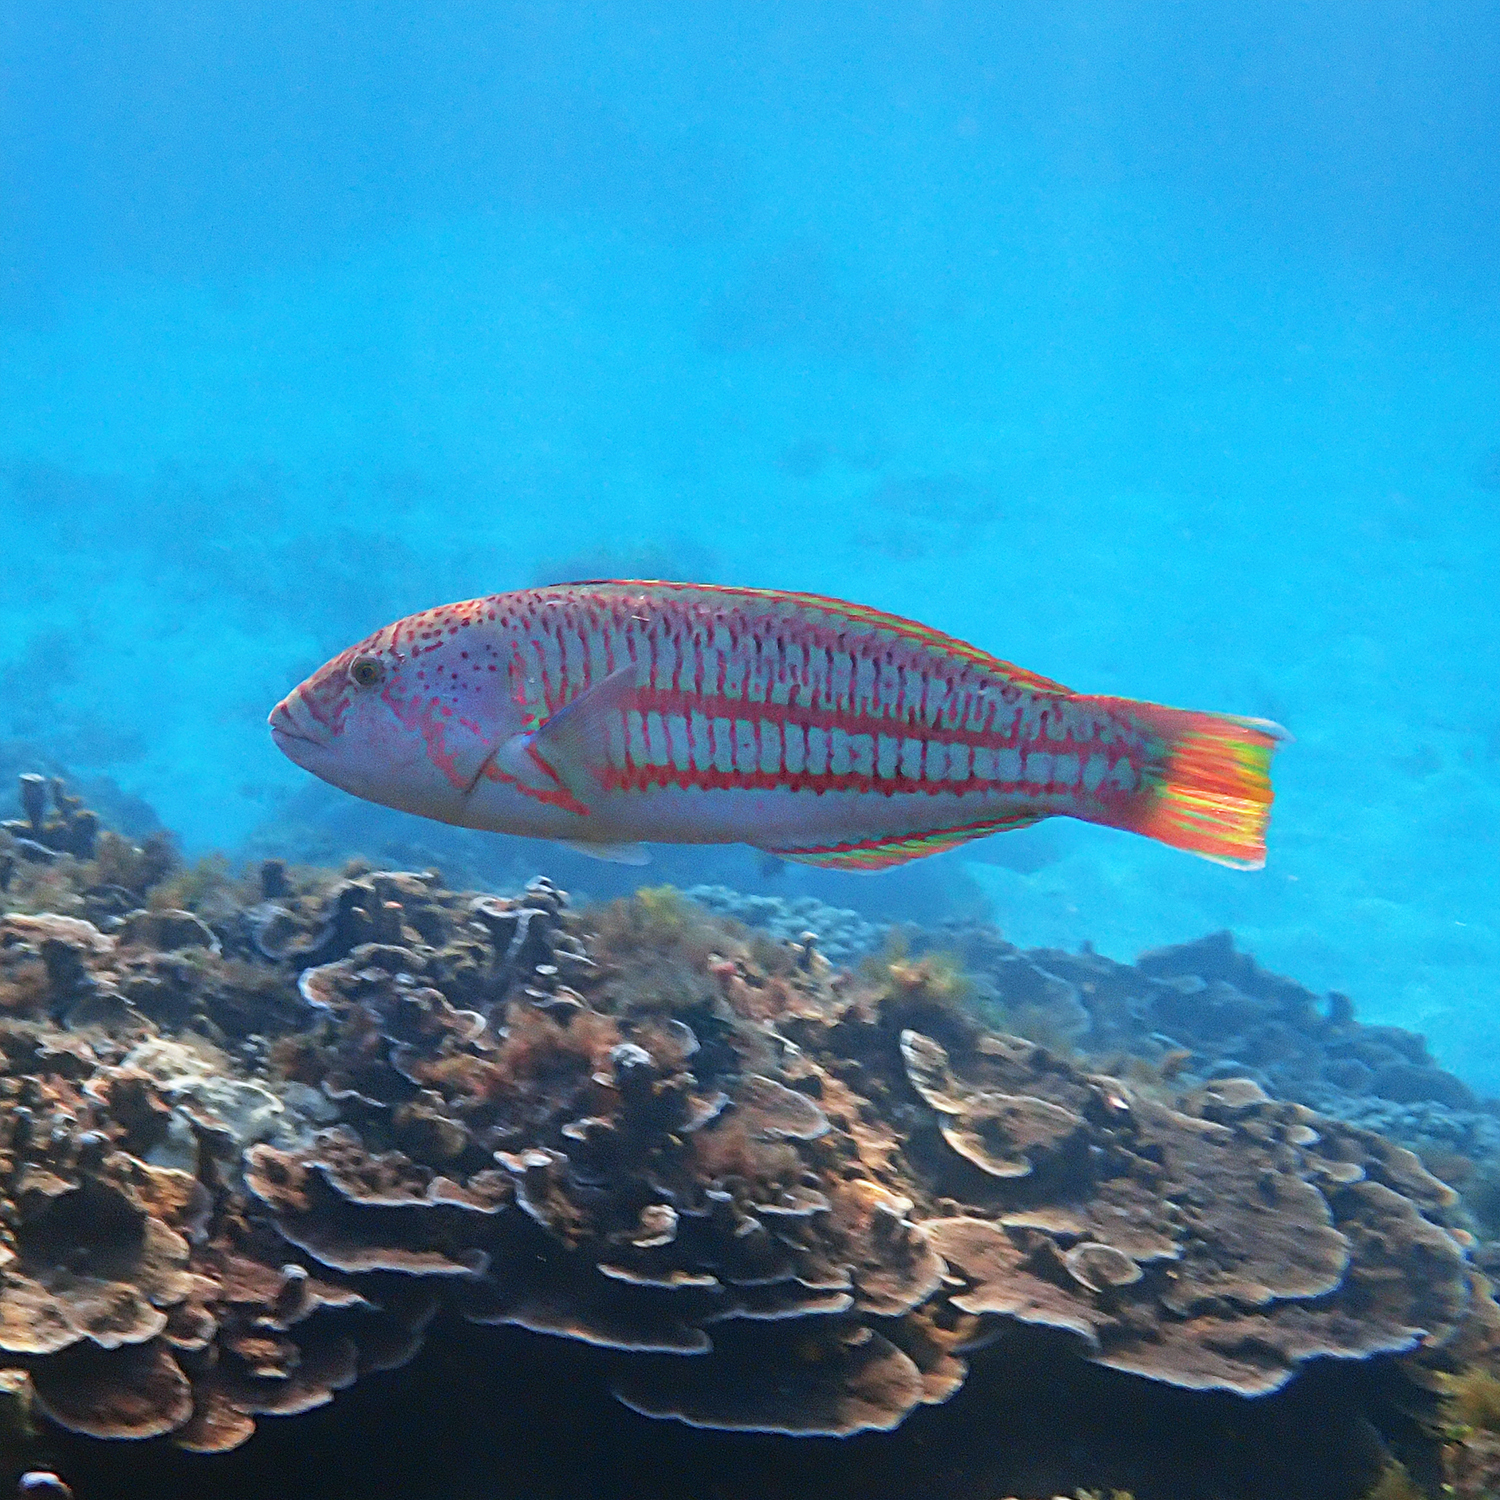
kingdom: Animalia
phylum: Chordata
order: Perciformes
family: Labridae
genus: Thalassoma
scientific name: Thalassoma purpureum
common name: Parrotfish
